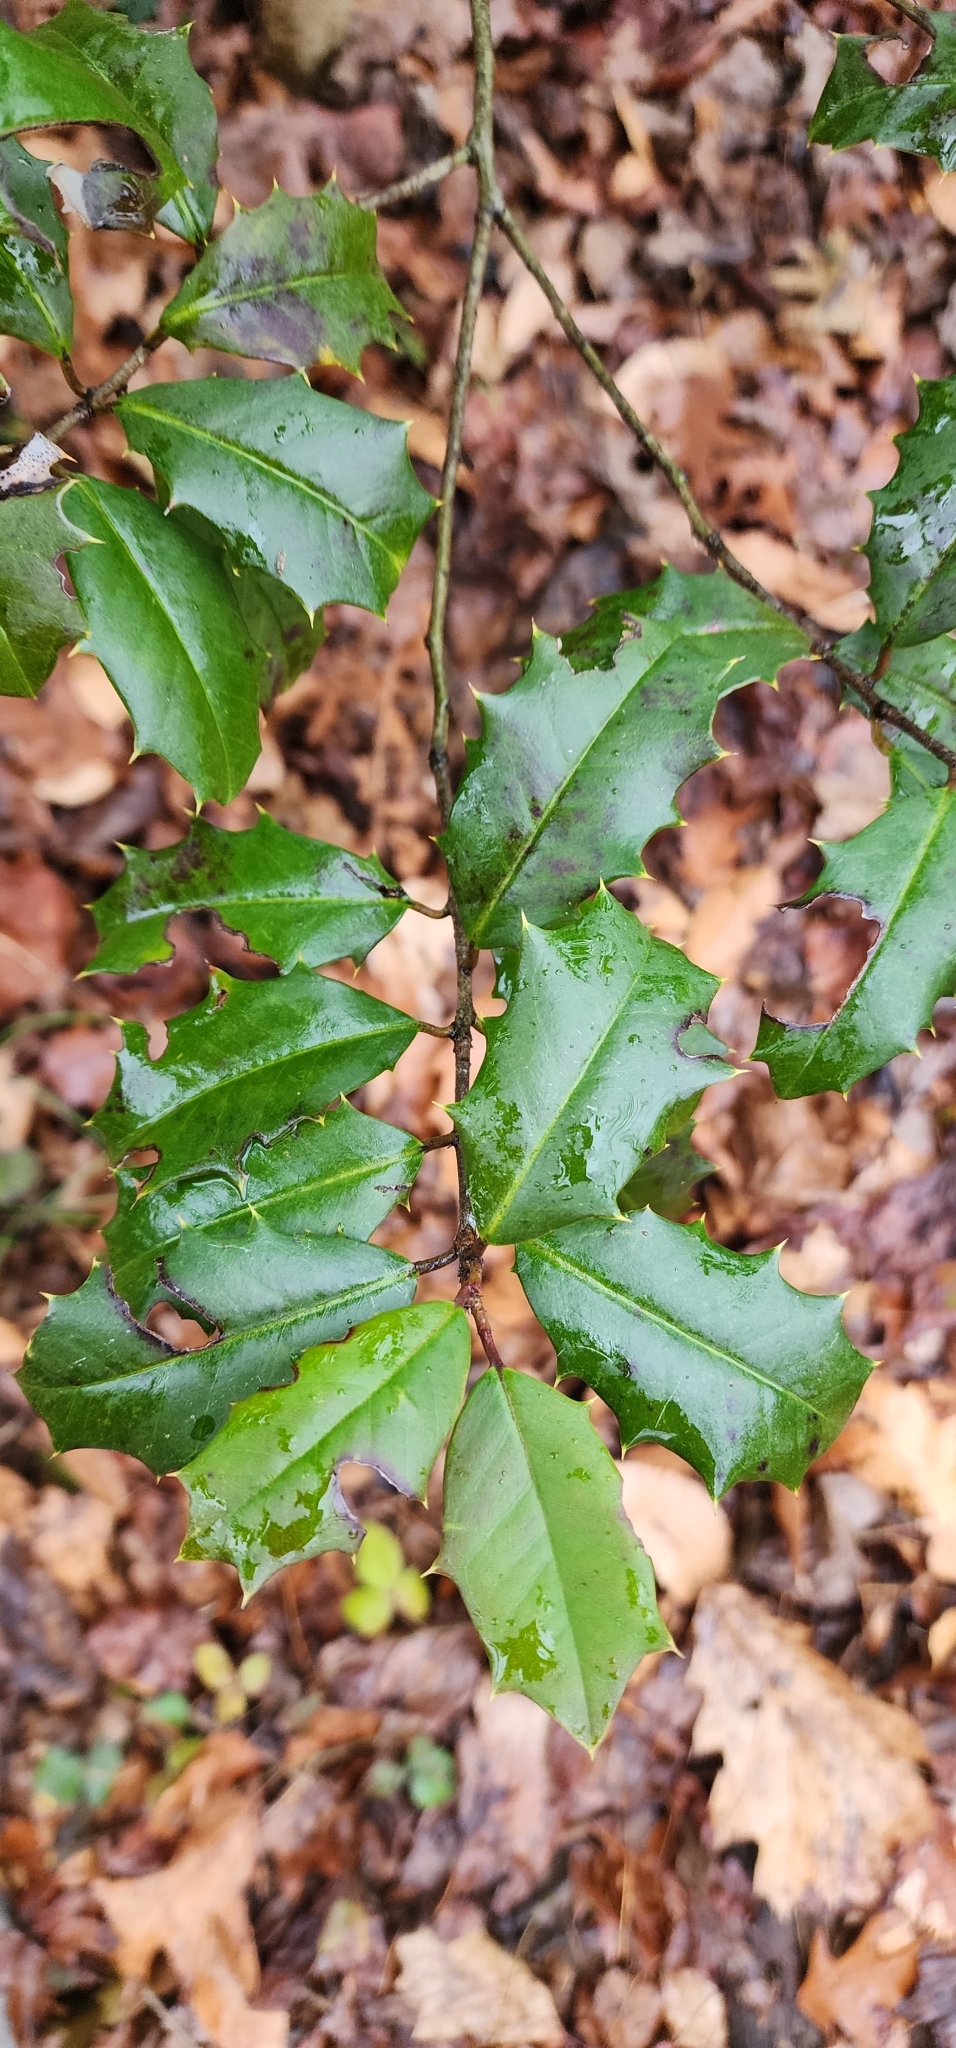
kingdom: Plantae
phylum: Tracheophyta
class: Magnoliopsida
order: Aquifoliales
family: Aquifoliaceae
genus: Ilex
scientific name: Ilex opaca
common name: American holly
